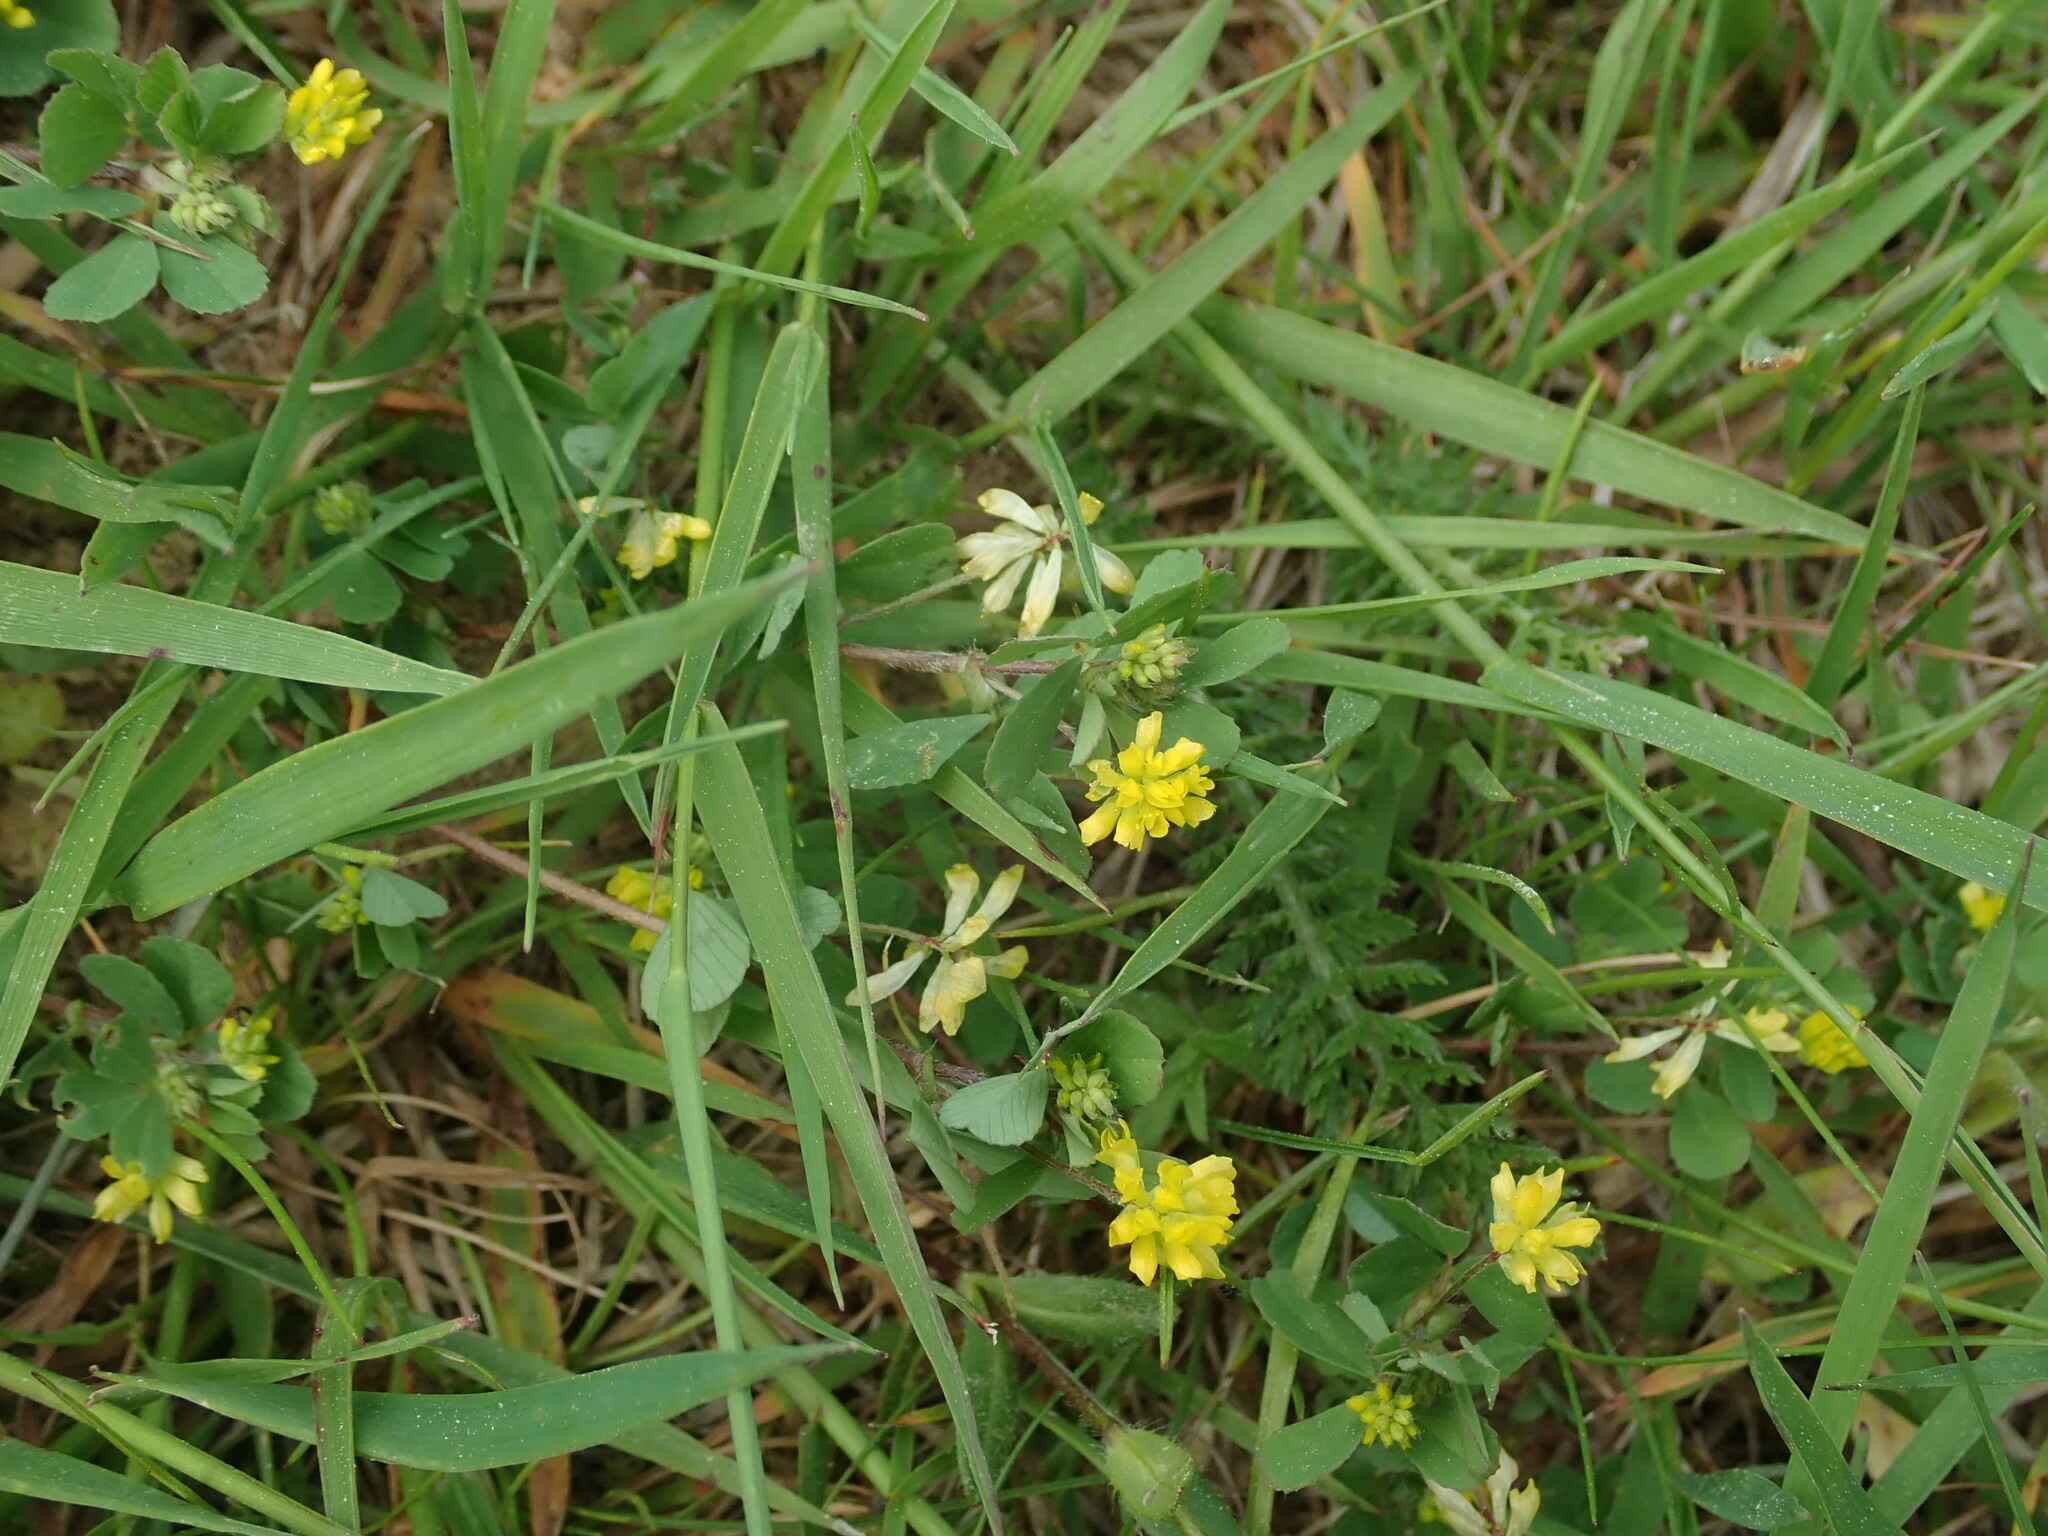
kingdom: Plantae
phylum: Tracheophyta
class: Magnoliopsida
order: Fabales
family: Fabaceae
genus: Trifolium
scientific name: Trifolium dubium
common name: Suckling clover
